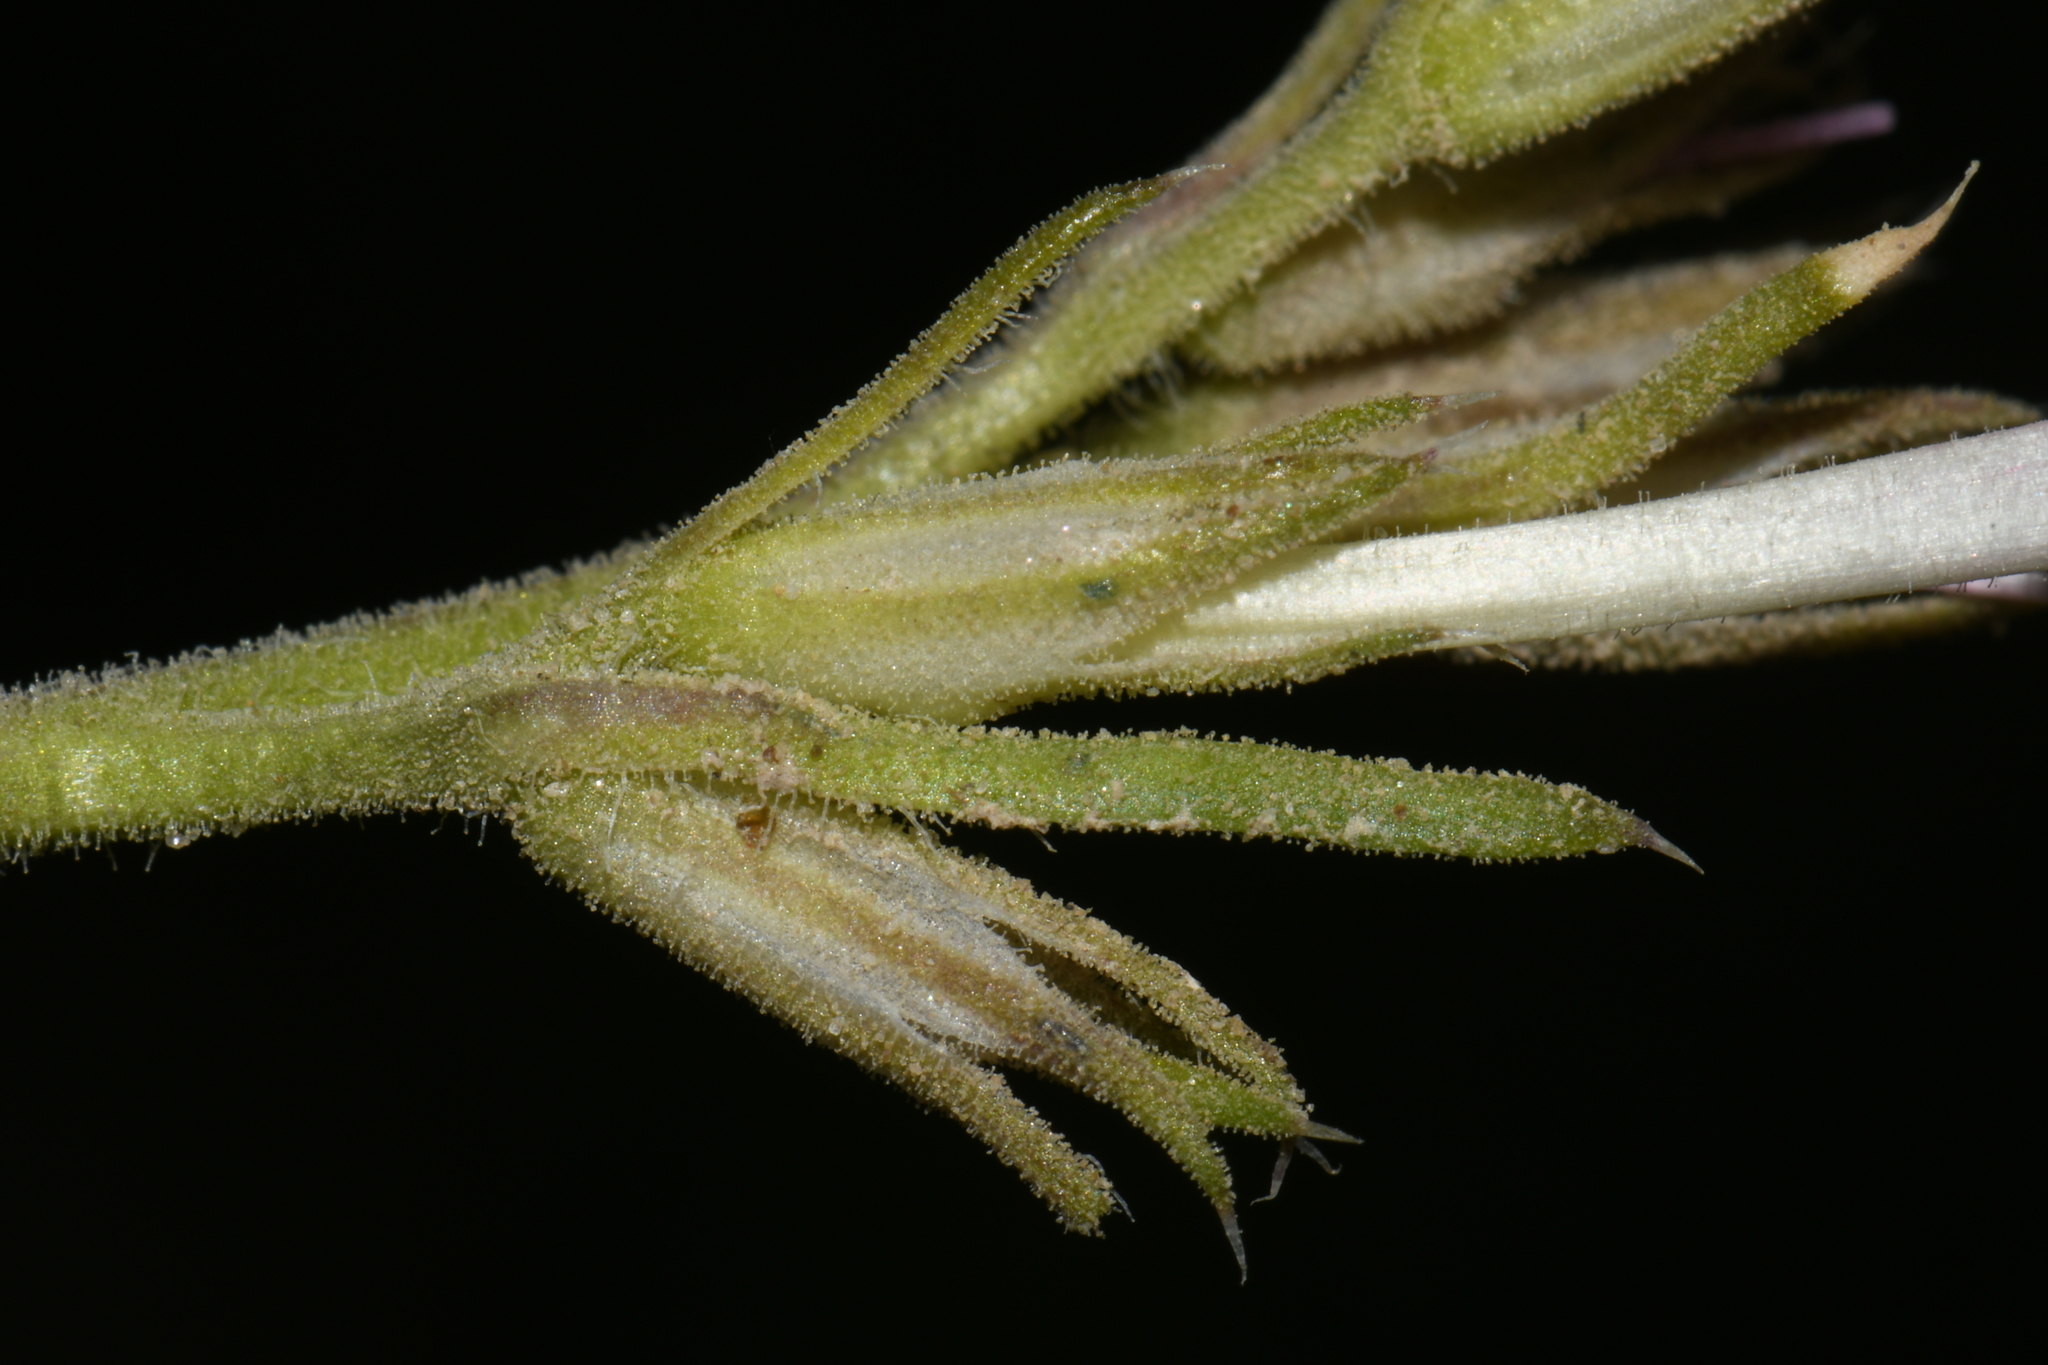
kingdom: Plantae
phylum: Tracheophyta
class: Magnoliopsida
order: Ericales
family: Polemoniaceae
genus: Ipomopsis
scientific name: Ipomopsis tenuituba
